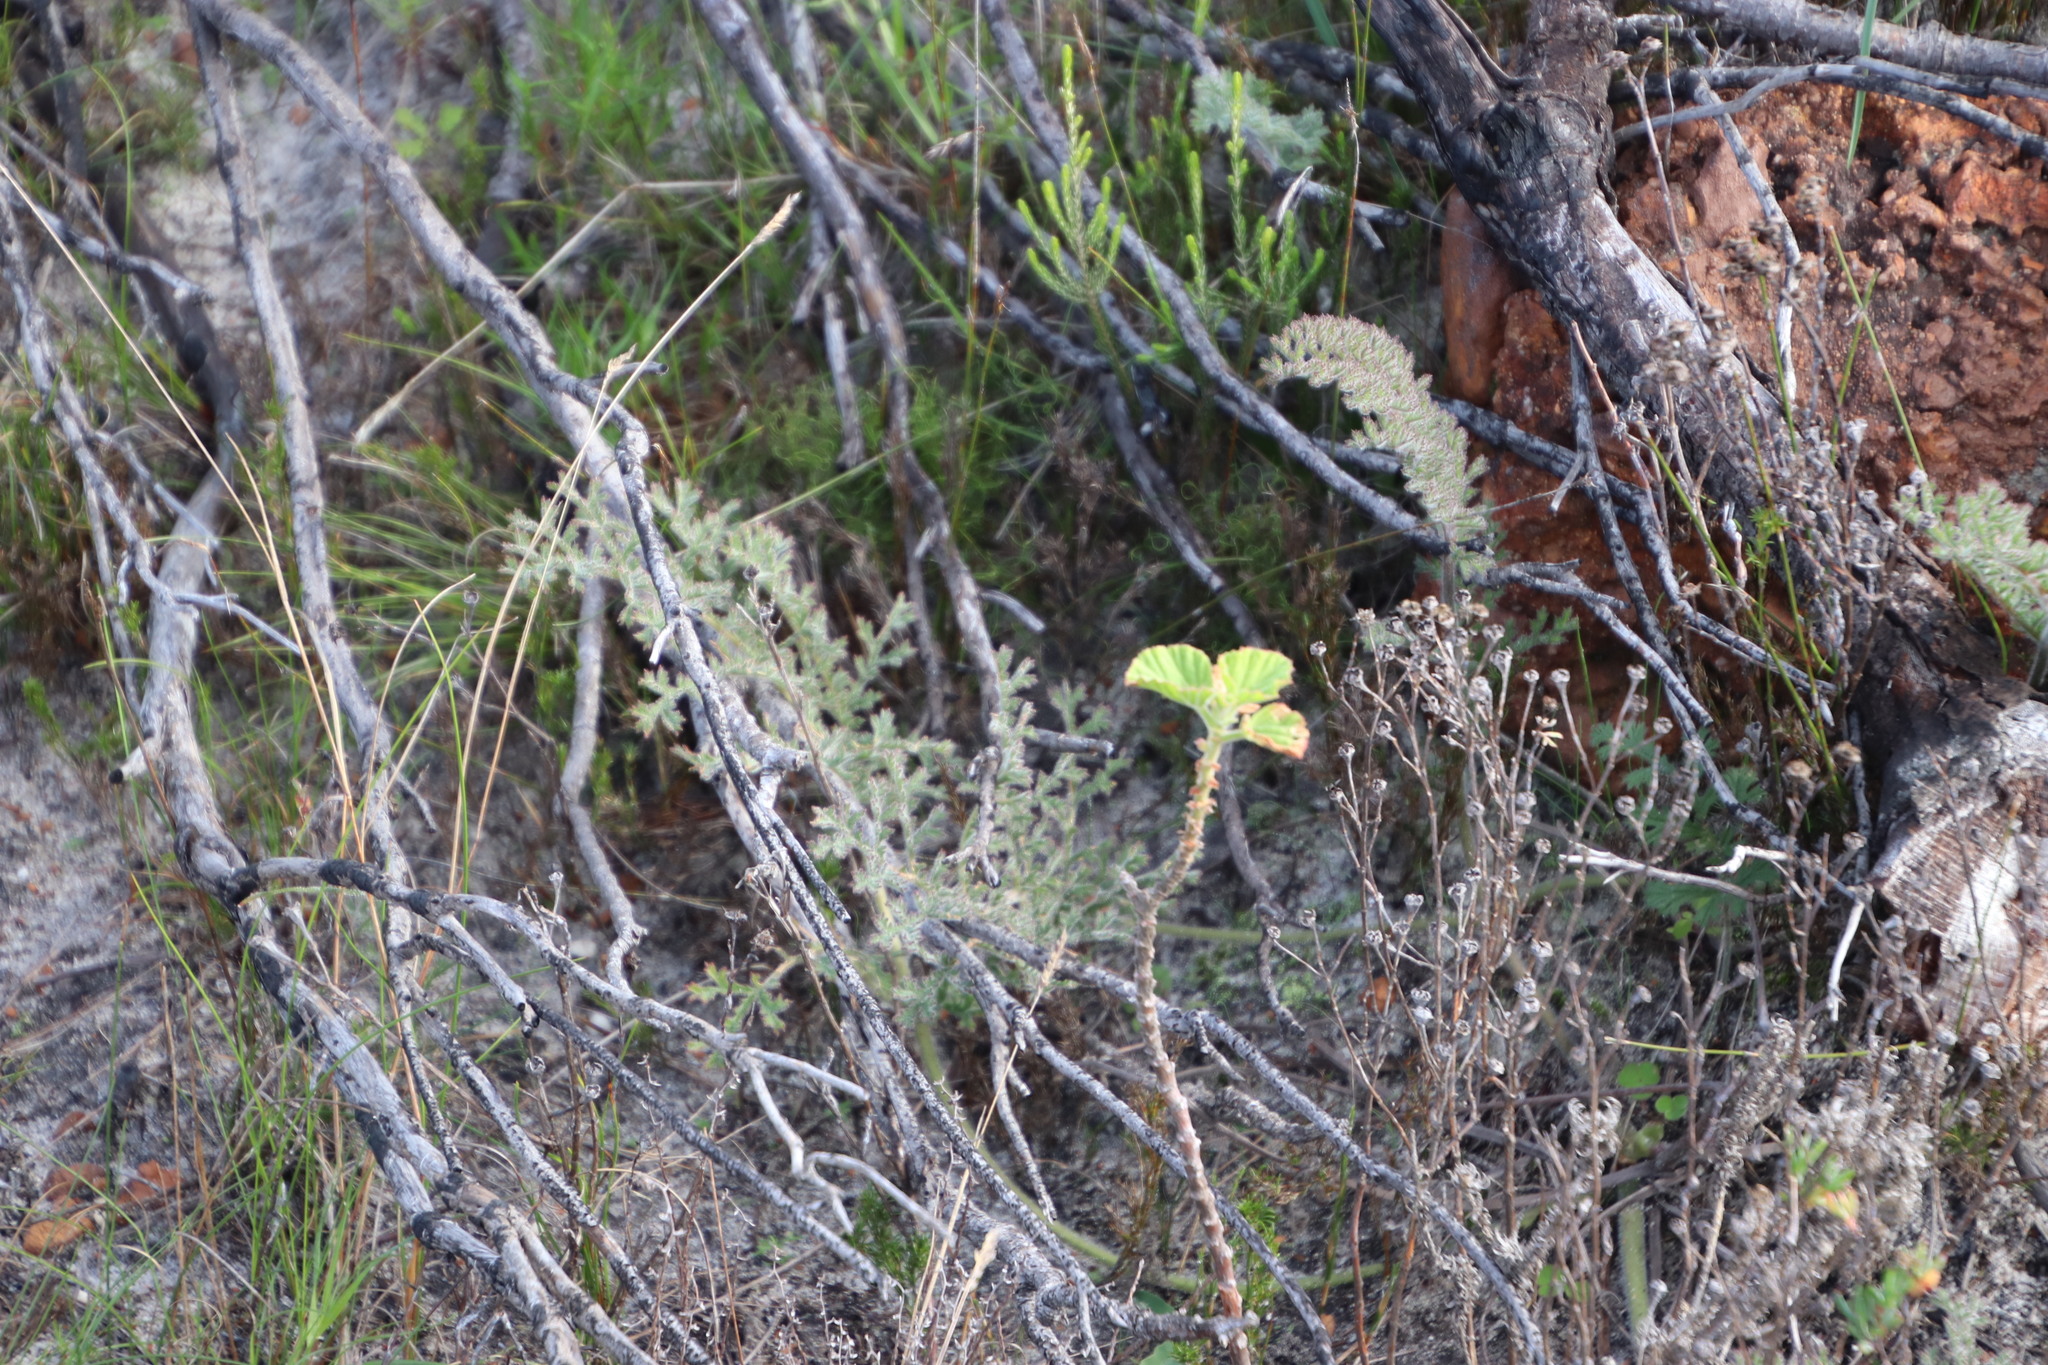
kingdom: Plantae
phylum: Tracheophyta
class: Magnoliopsida
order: Geraniales
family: Geraniaceae
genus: Pelargonium
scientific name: Pelargonium triste
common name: Night-scent pelargonium
